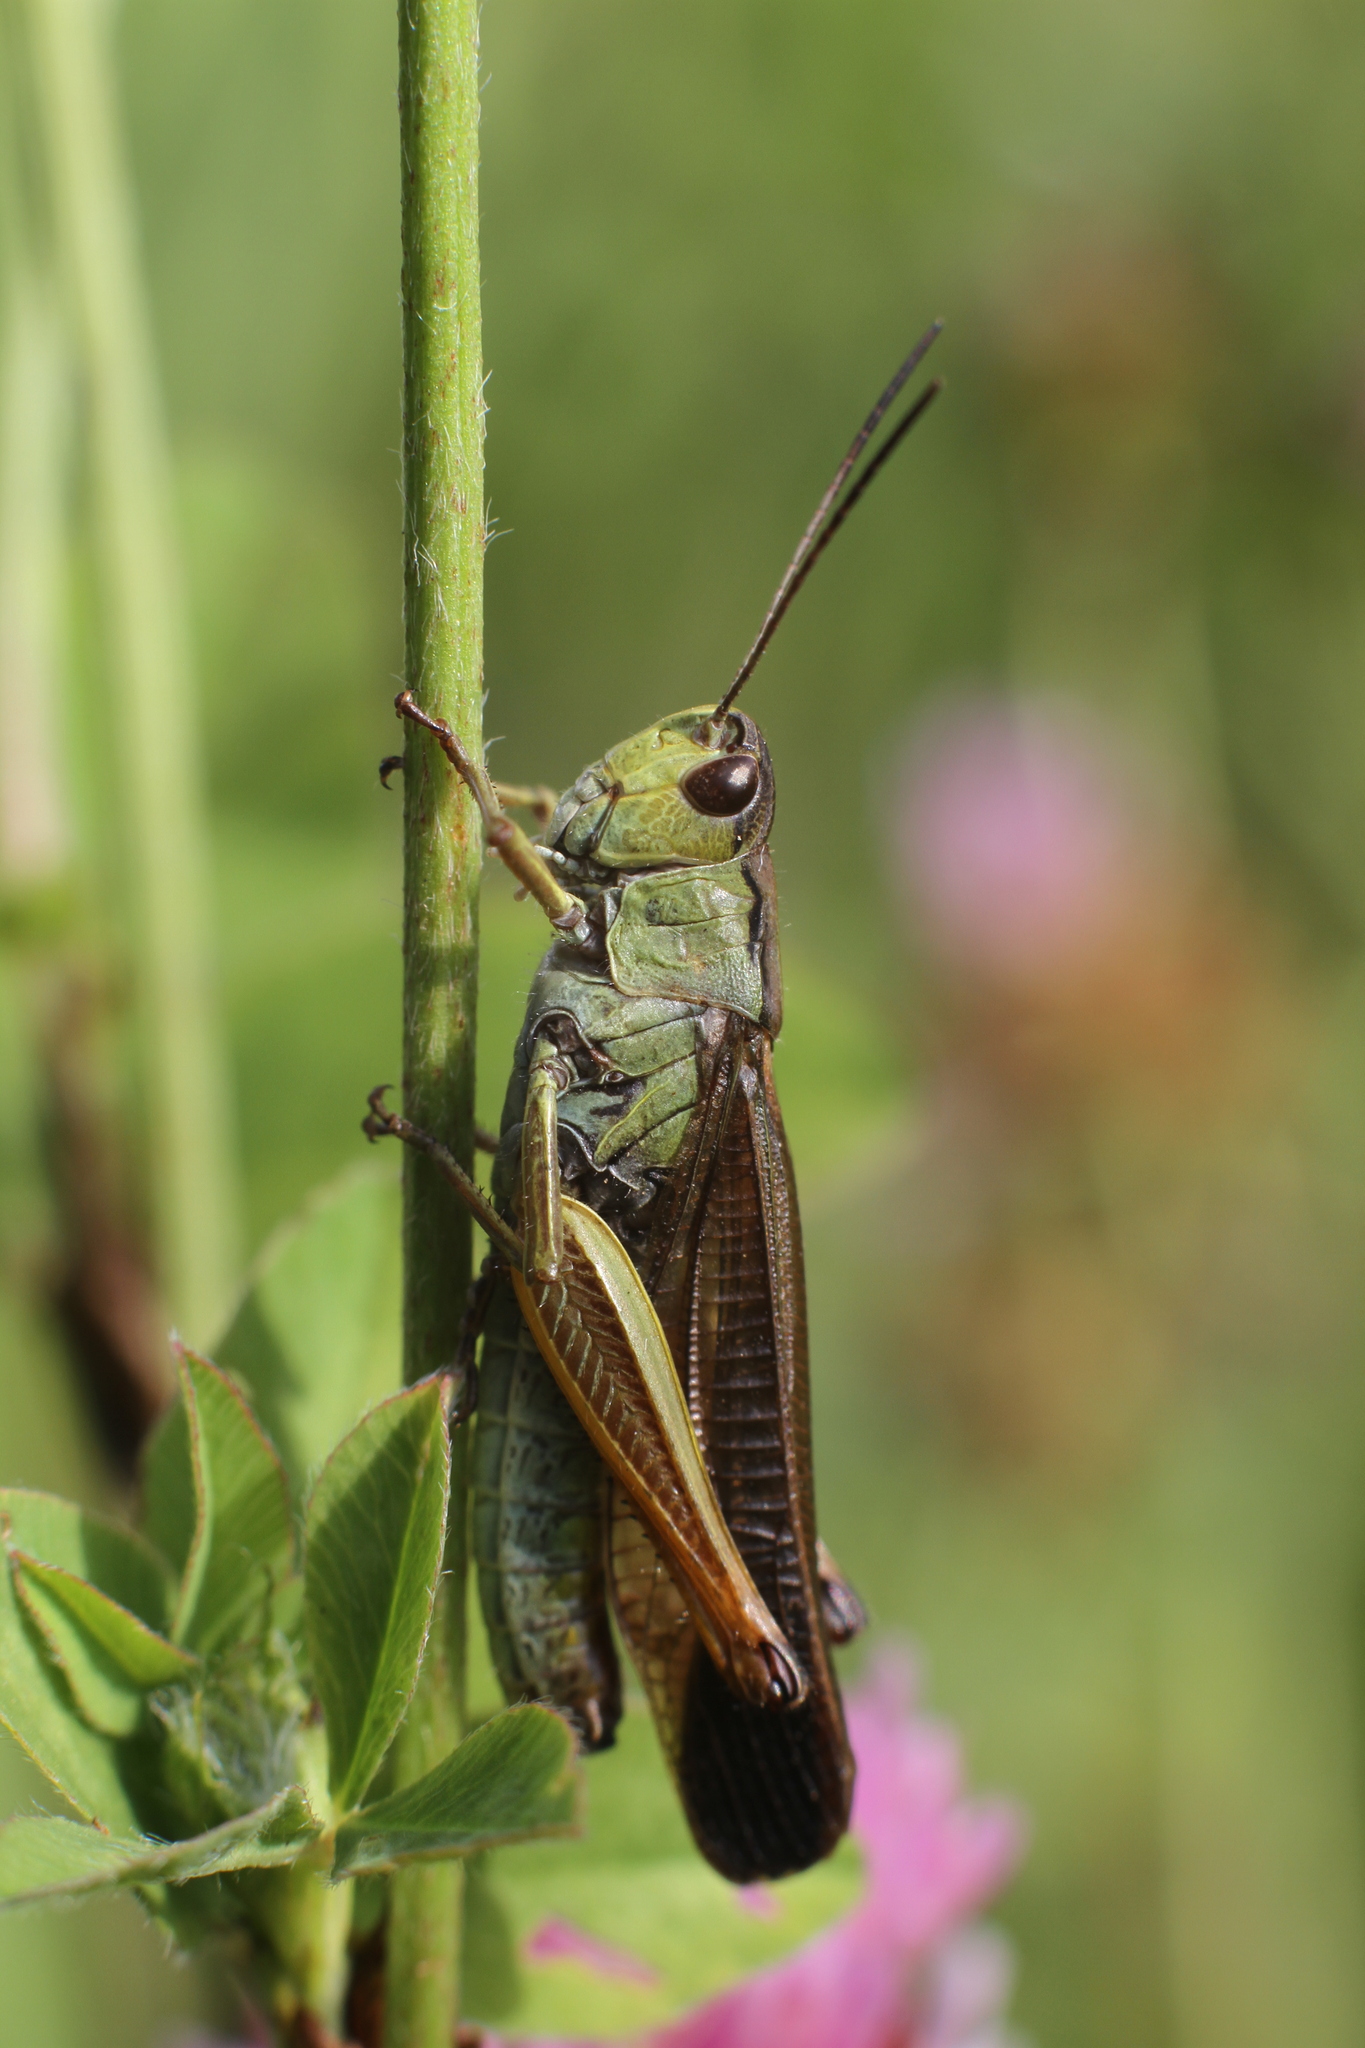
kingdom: Animalia
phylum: Arthropoda
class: Insecta
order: Orthoptera
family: Acrididae
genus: Stauroderus
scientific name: Stauroderus scalaris
